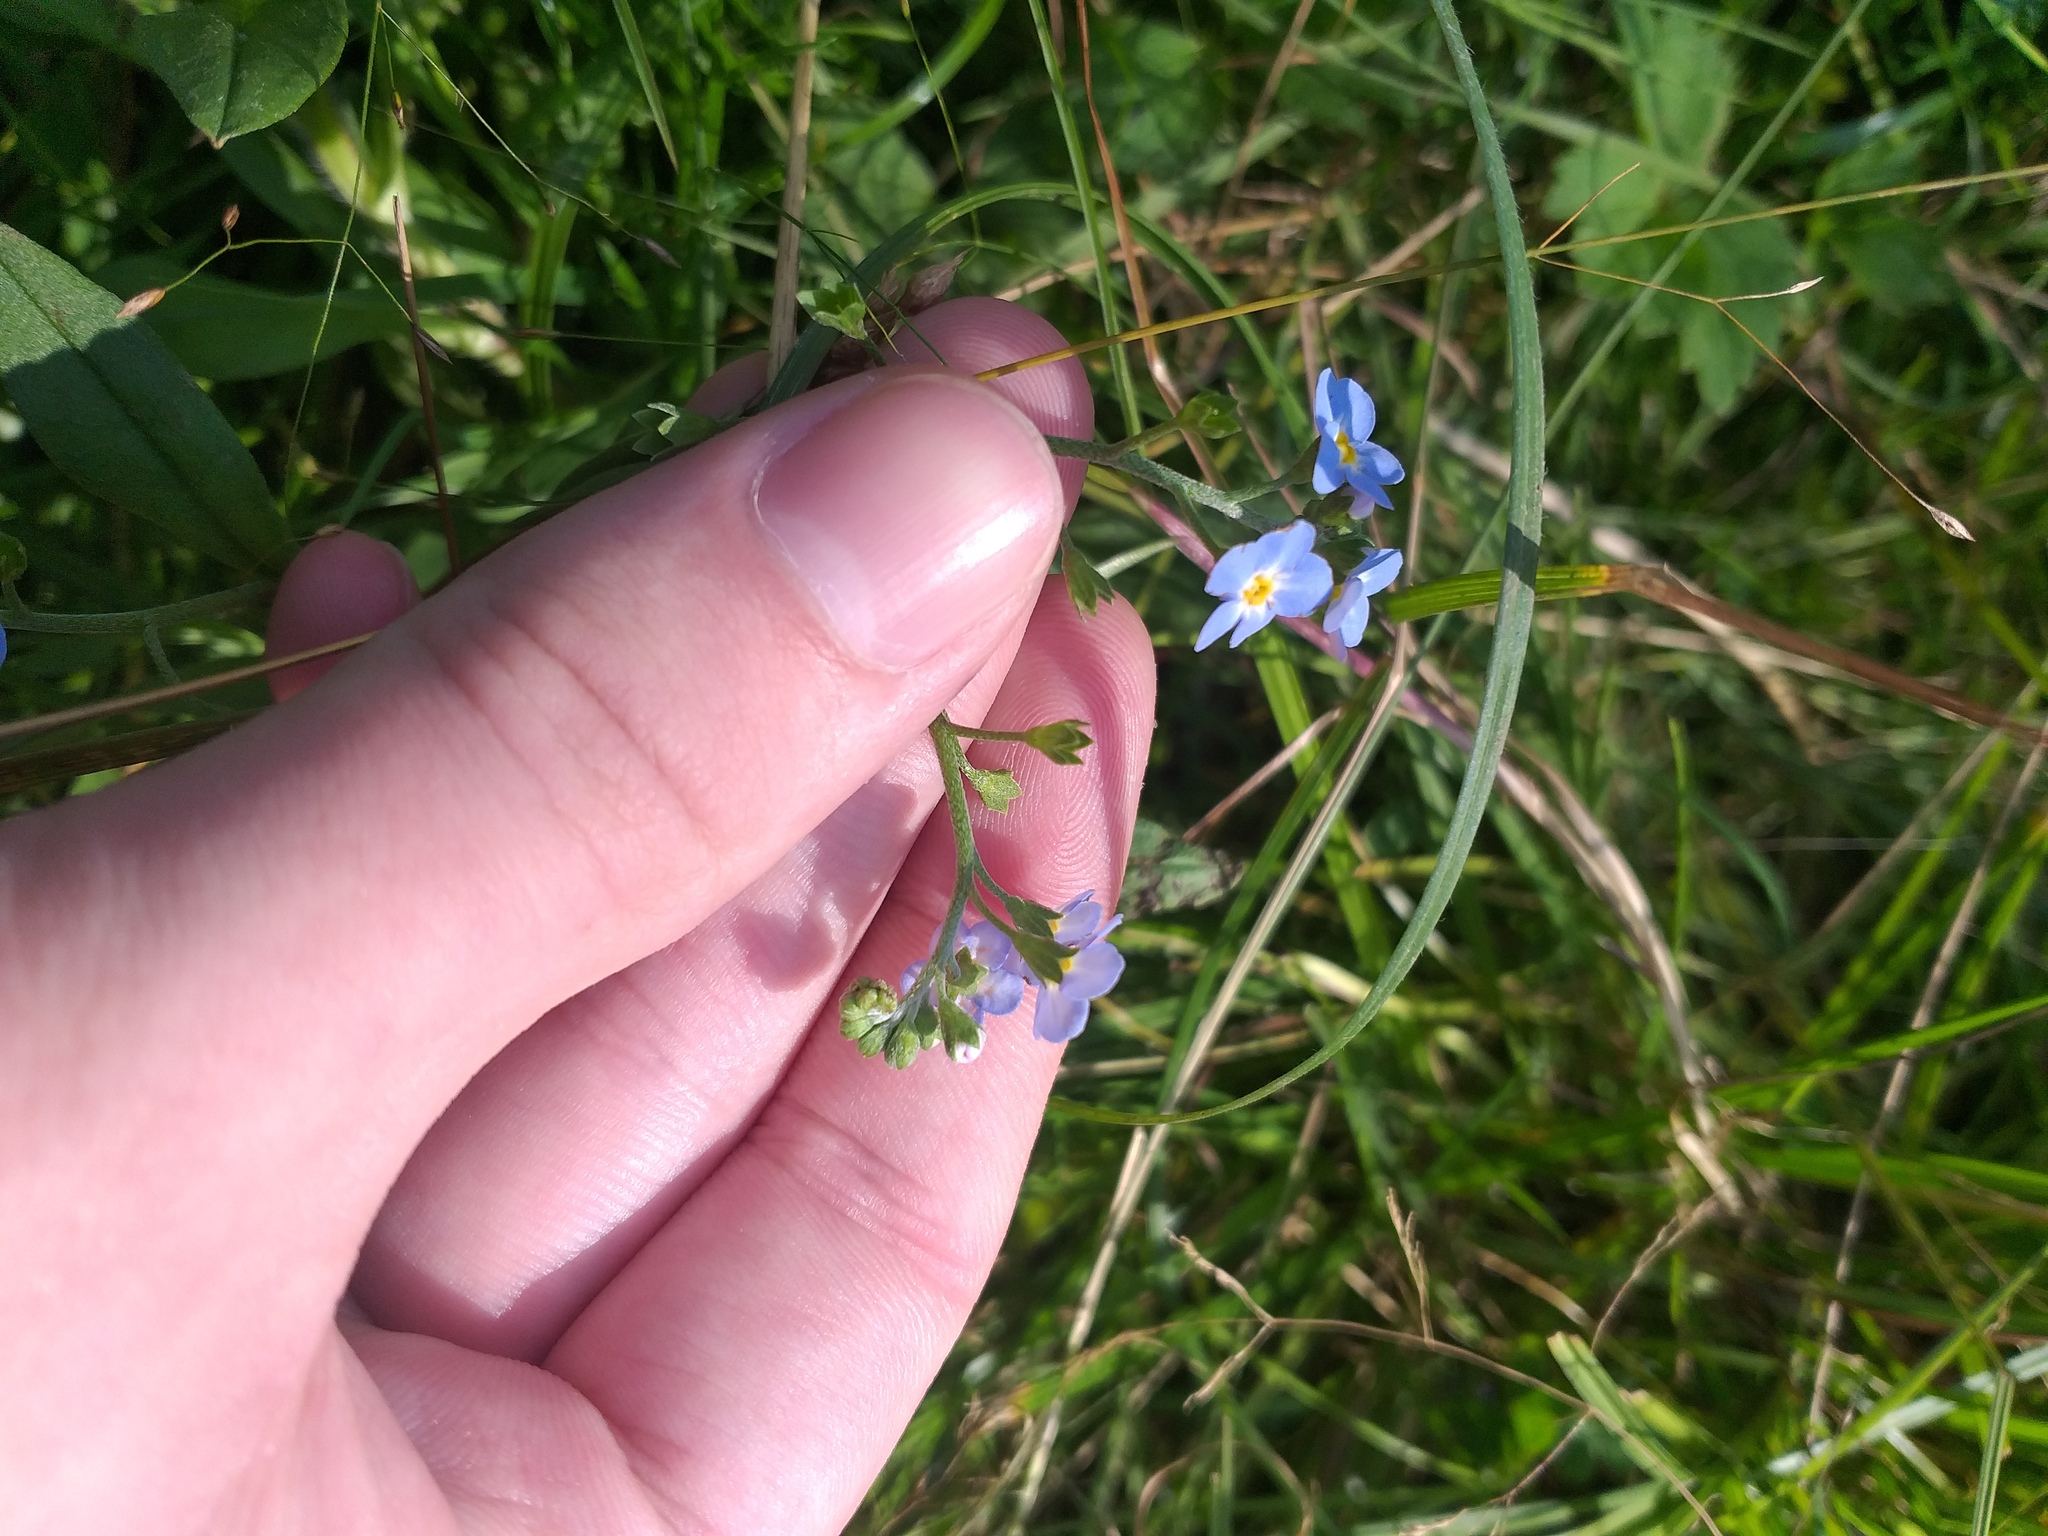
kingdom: Plantae
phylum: Tracheophyta
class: Magnoliopsida
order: Boraginales
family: Boraginaceae
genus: Myosotis
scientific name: Myosotis scorpioides
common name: Water forget-me-not
